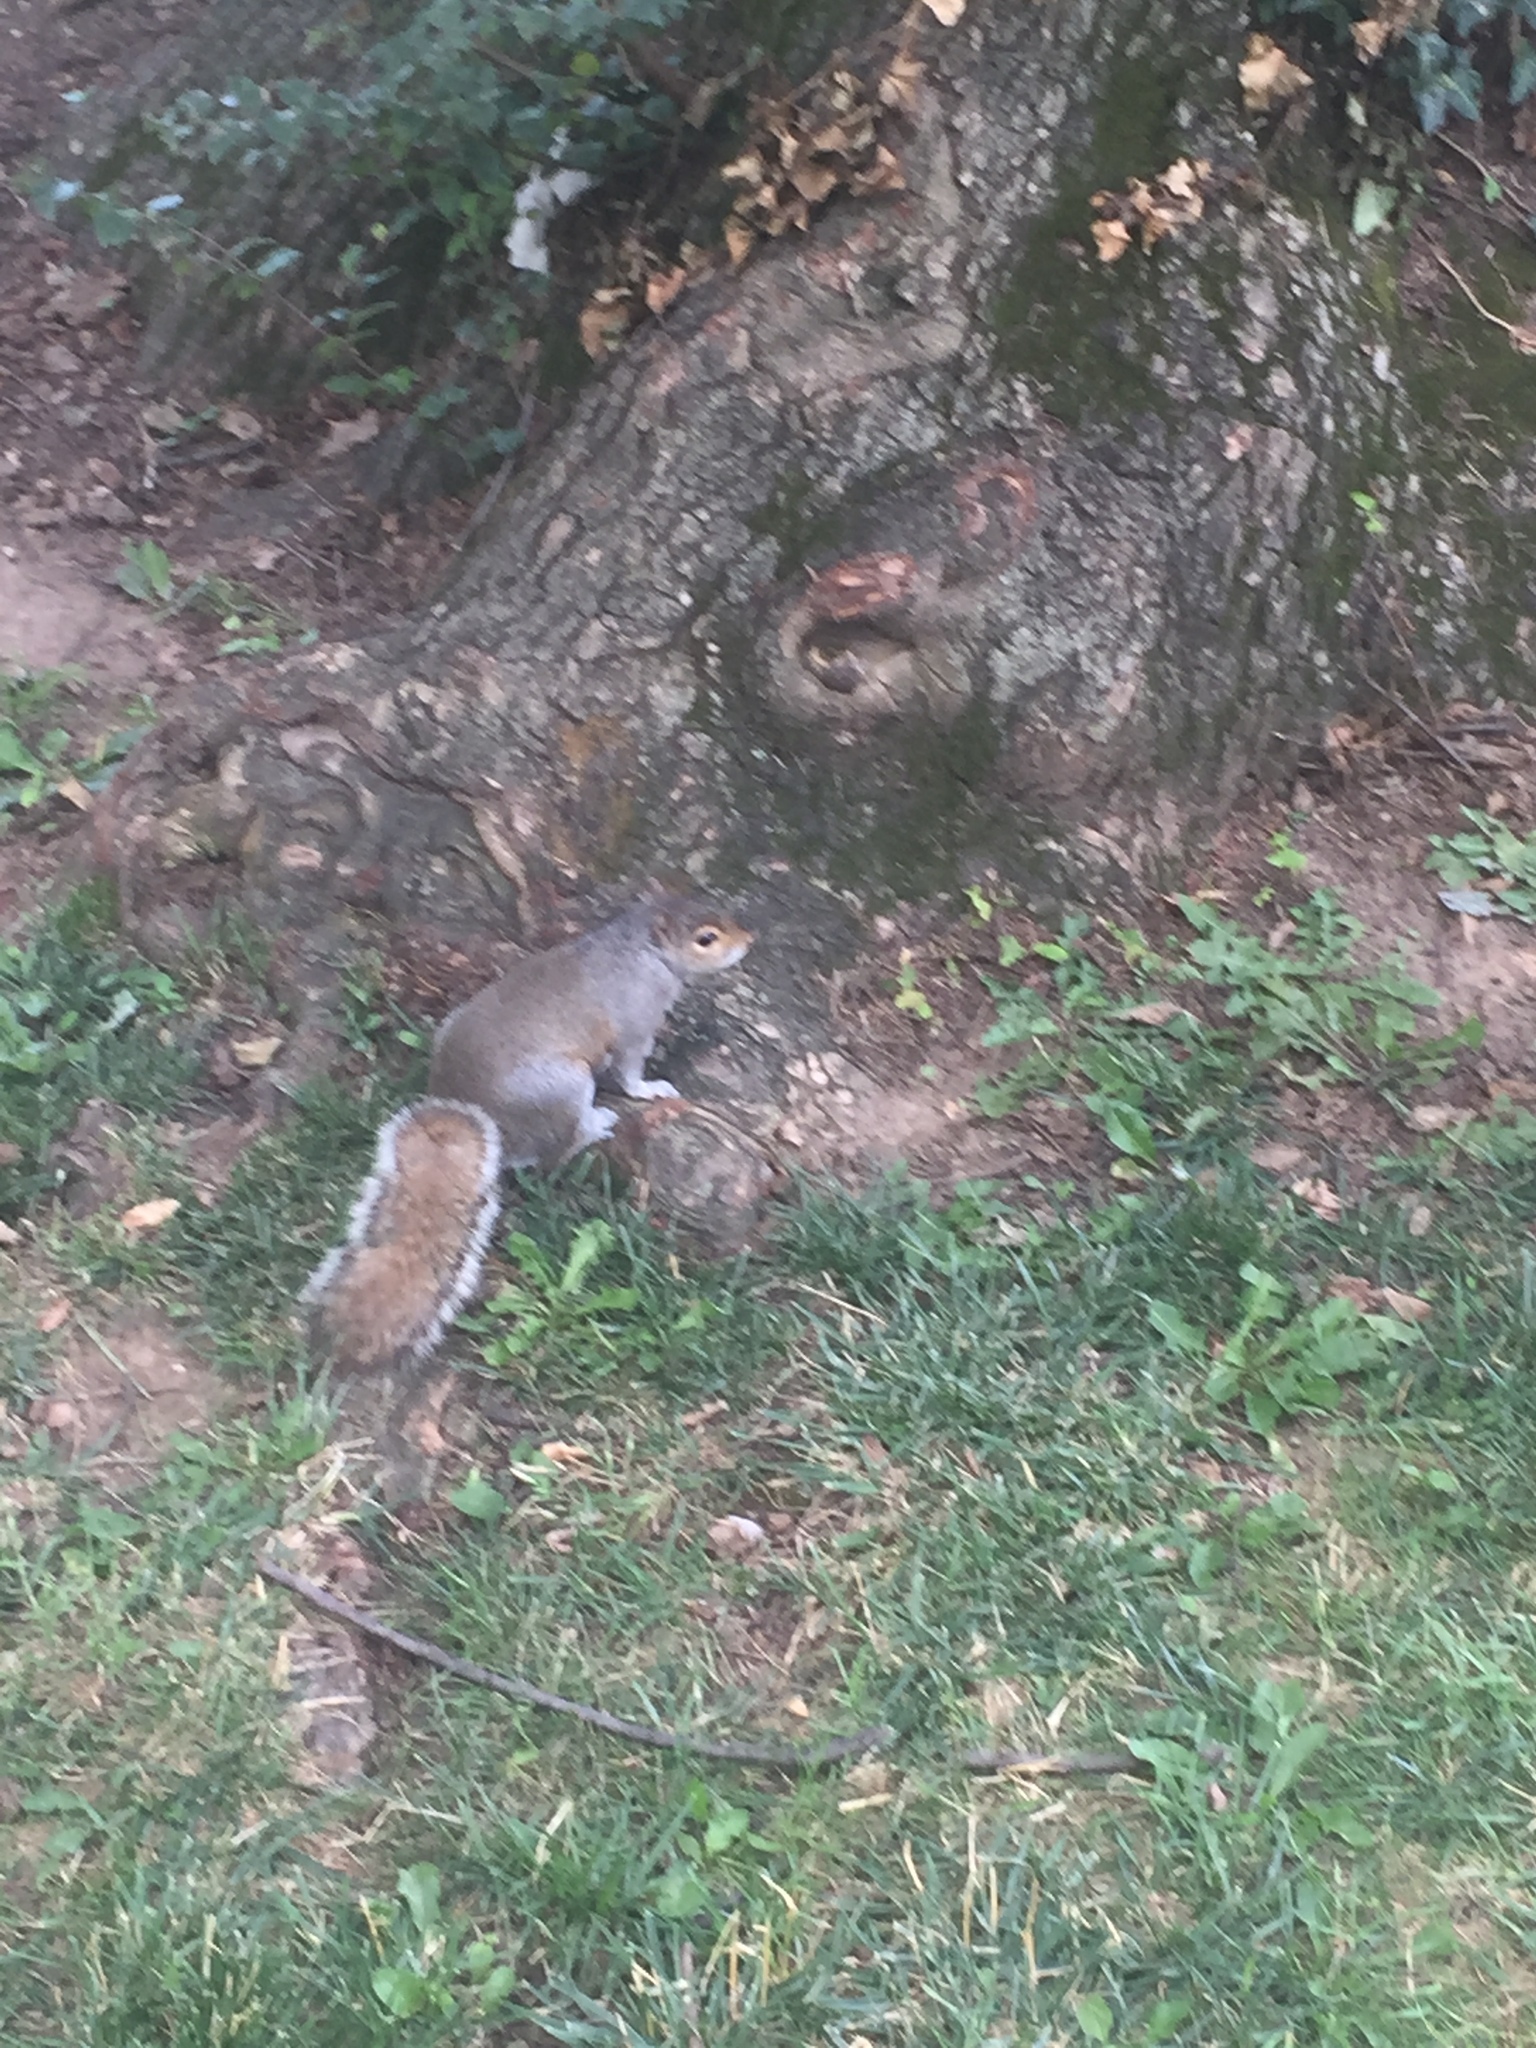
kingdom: Animalia
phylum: Chordata
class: Mammalia
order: Rodentia
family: Sciuridae
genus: Sciurus
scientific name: Sciurus carolinensis
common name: Eastern gray squirrel
